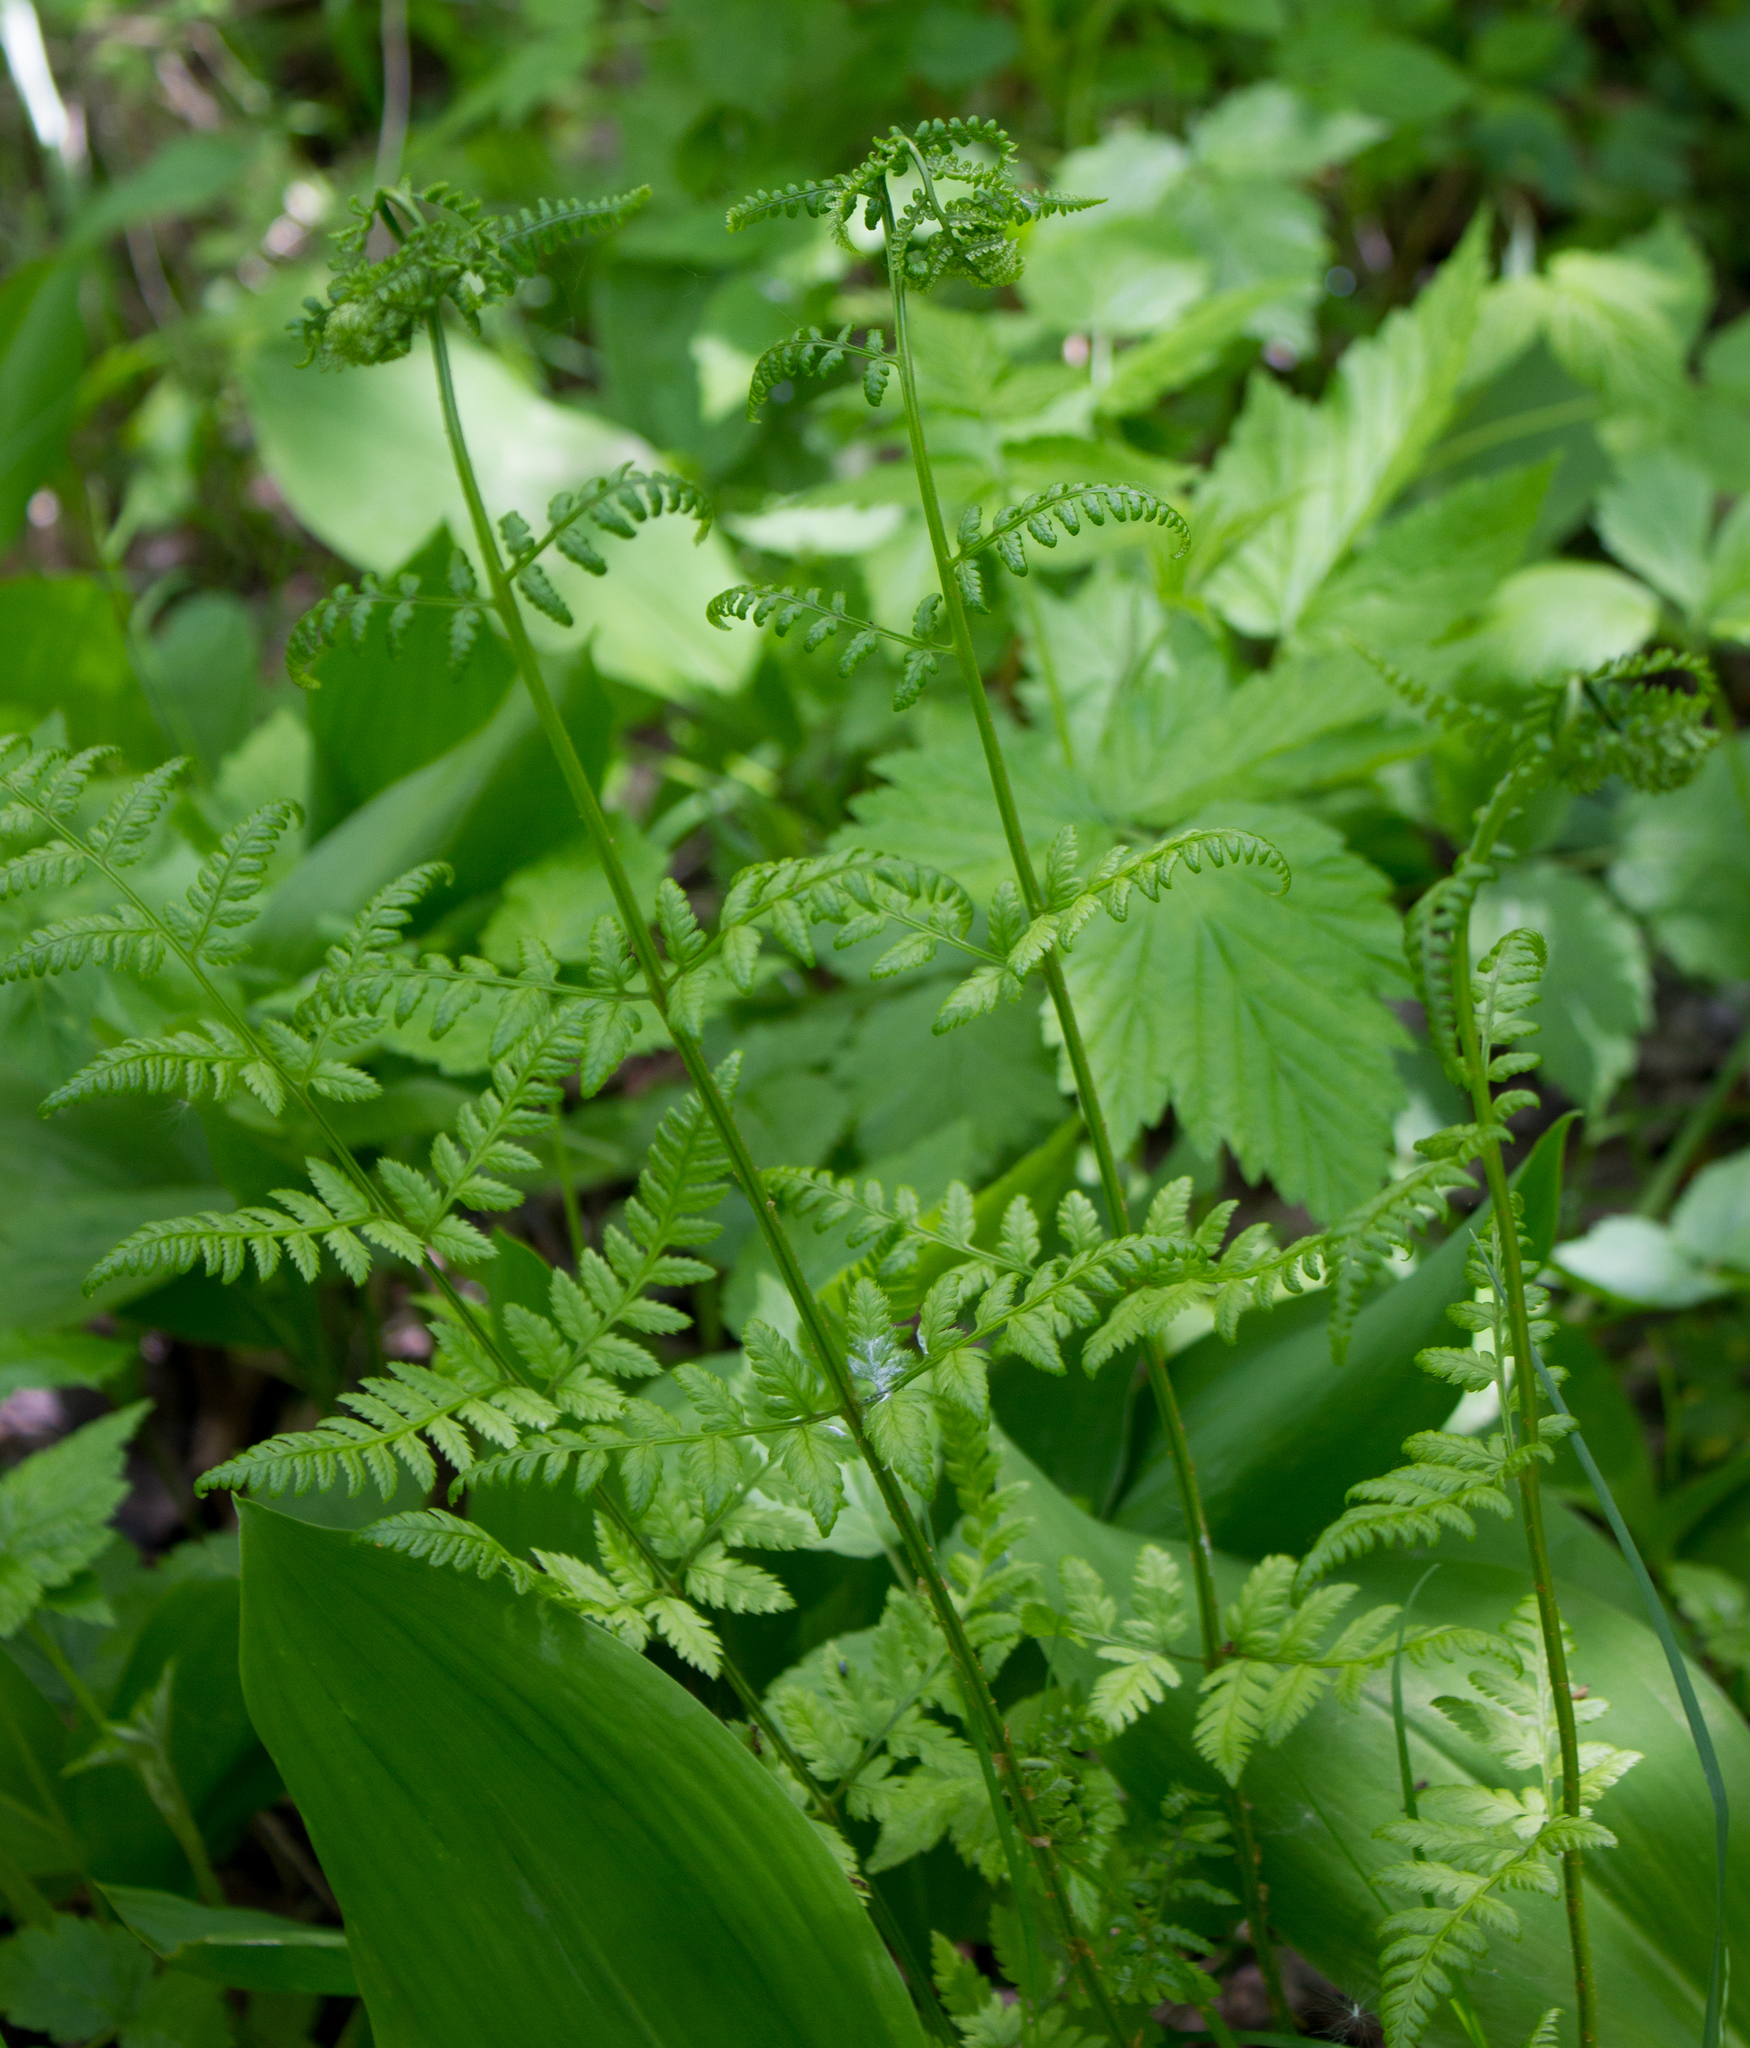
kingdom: Plantae
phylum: Tracheophyta
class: Polypodiopsida
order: Polypodiales
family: Dryopteridaceae
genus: Dryopteris
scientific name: Dryopteris carthusiana
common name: Narrow buckler-fern
